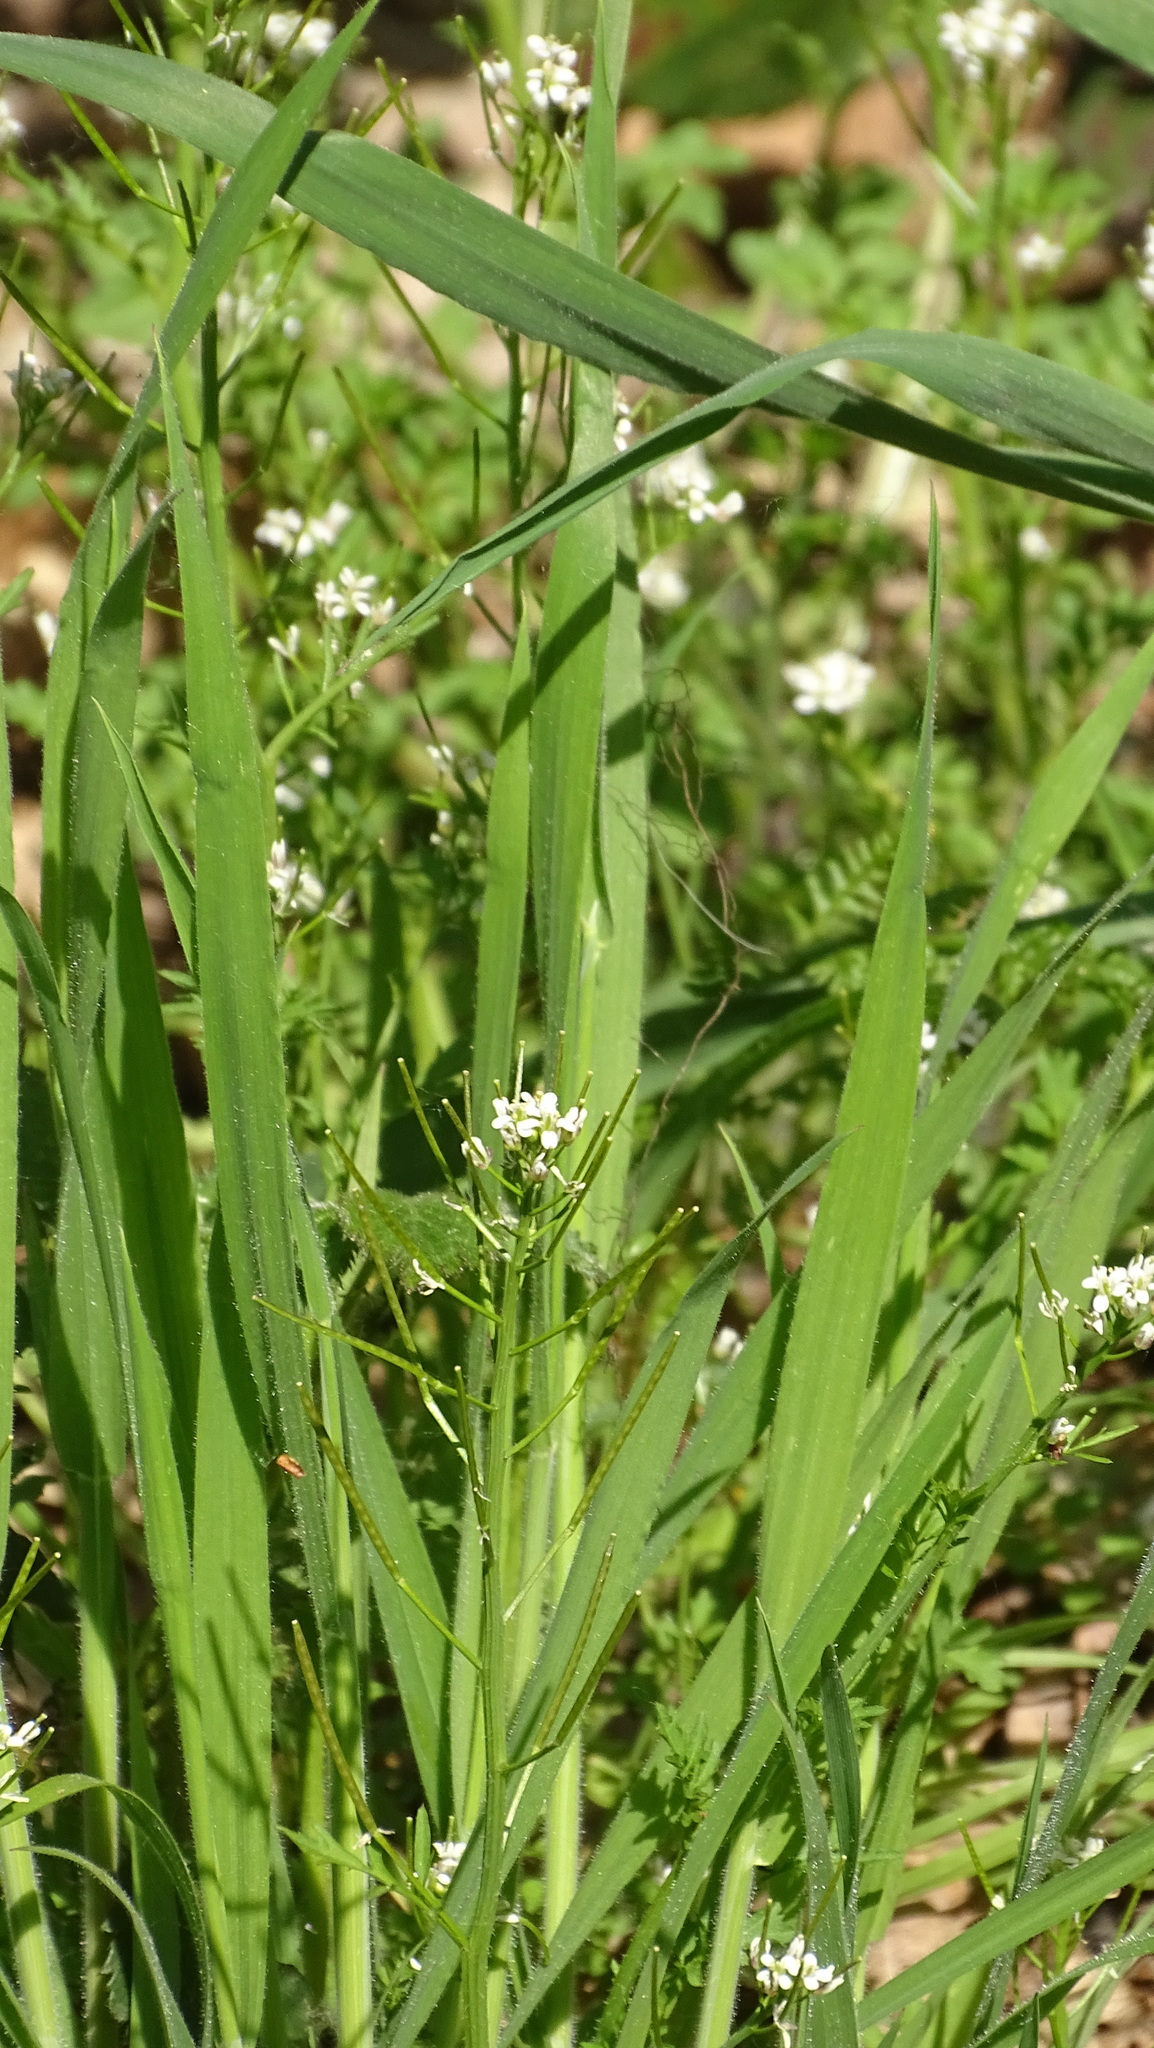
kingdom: Plantae
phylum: Tracheophyta
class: Magnoliopsida
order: Brassicales
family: Brassicaceae
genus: Alliaria
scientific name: Alliaria petiolata
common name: Garlic mustard
